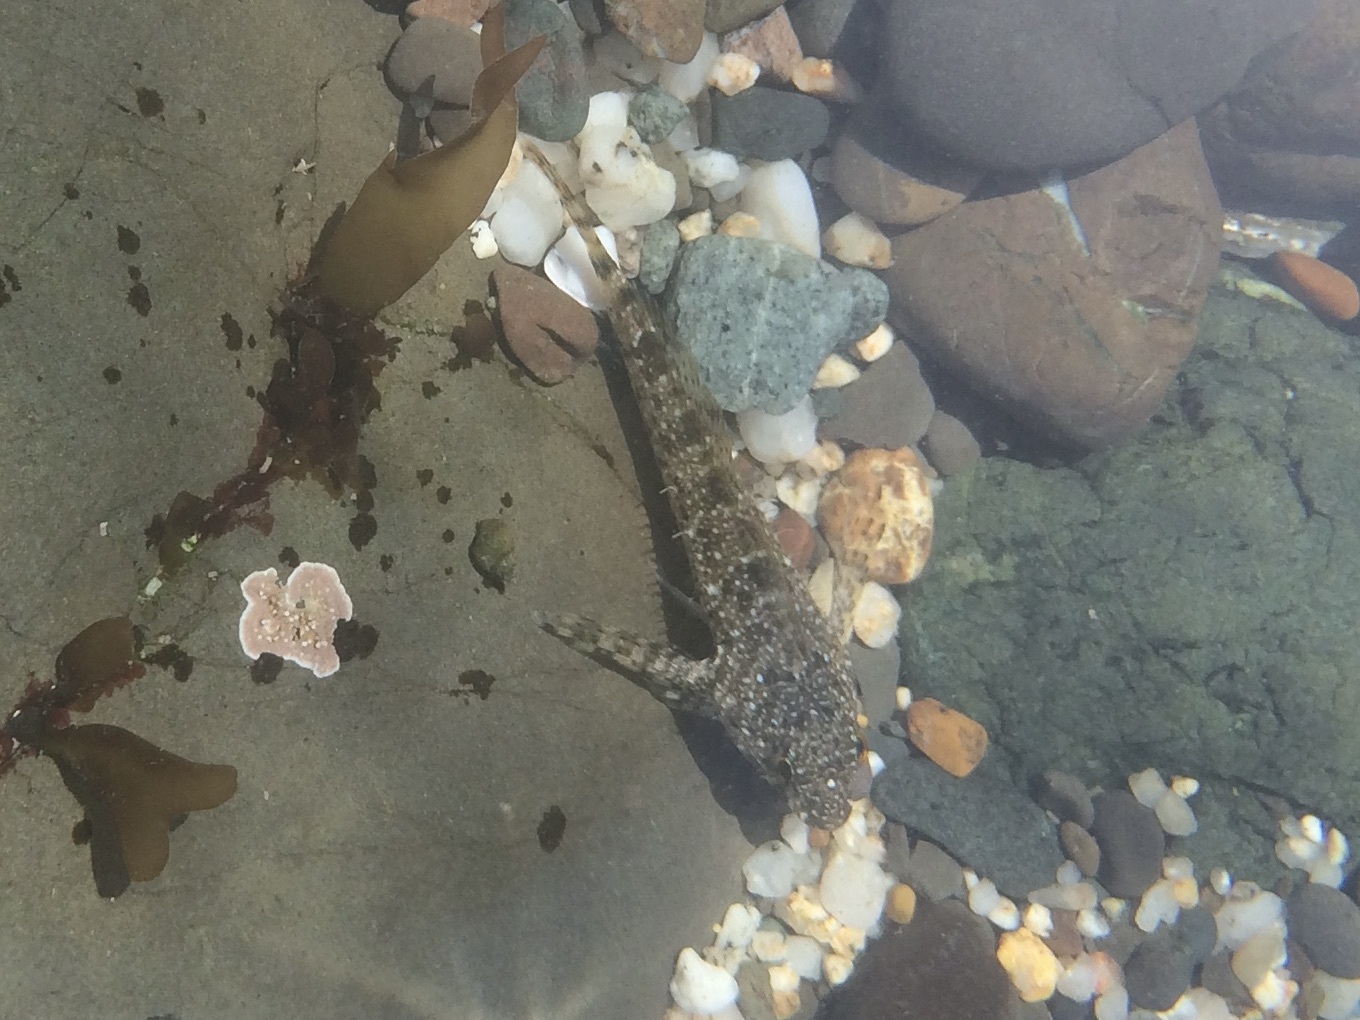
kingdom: Animalia
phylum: Chordata
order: Scorpaeniformes
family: Cottidae
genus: Clinocottus
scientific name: Clinocottus analis
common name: Woolly sculpin
